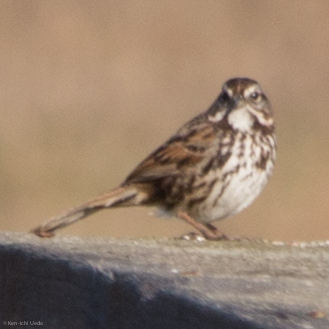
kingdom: Animalia
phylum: Chordata
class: Aves
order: Passeriformes
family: Passerellidae
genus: Melospiza
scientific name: Melospiza melodia
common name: Song sparrow
